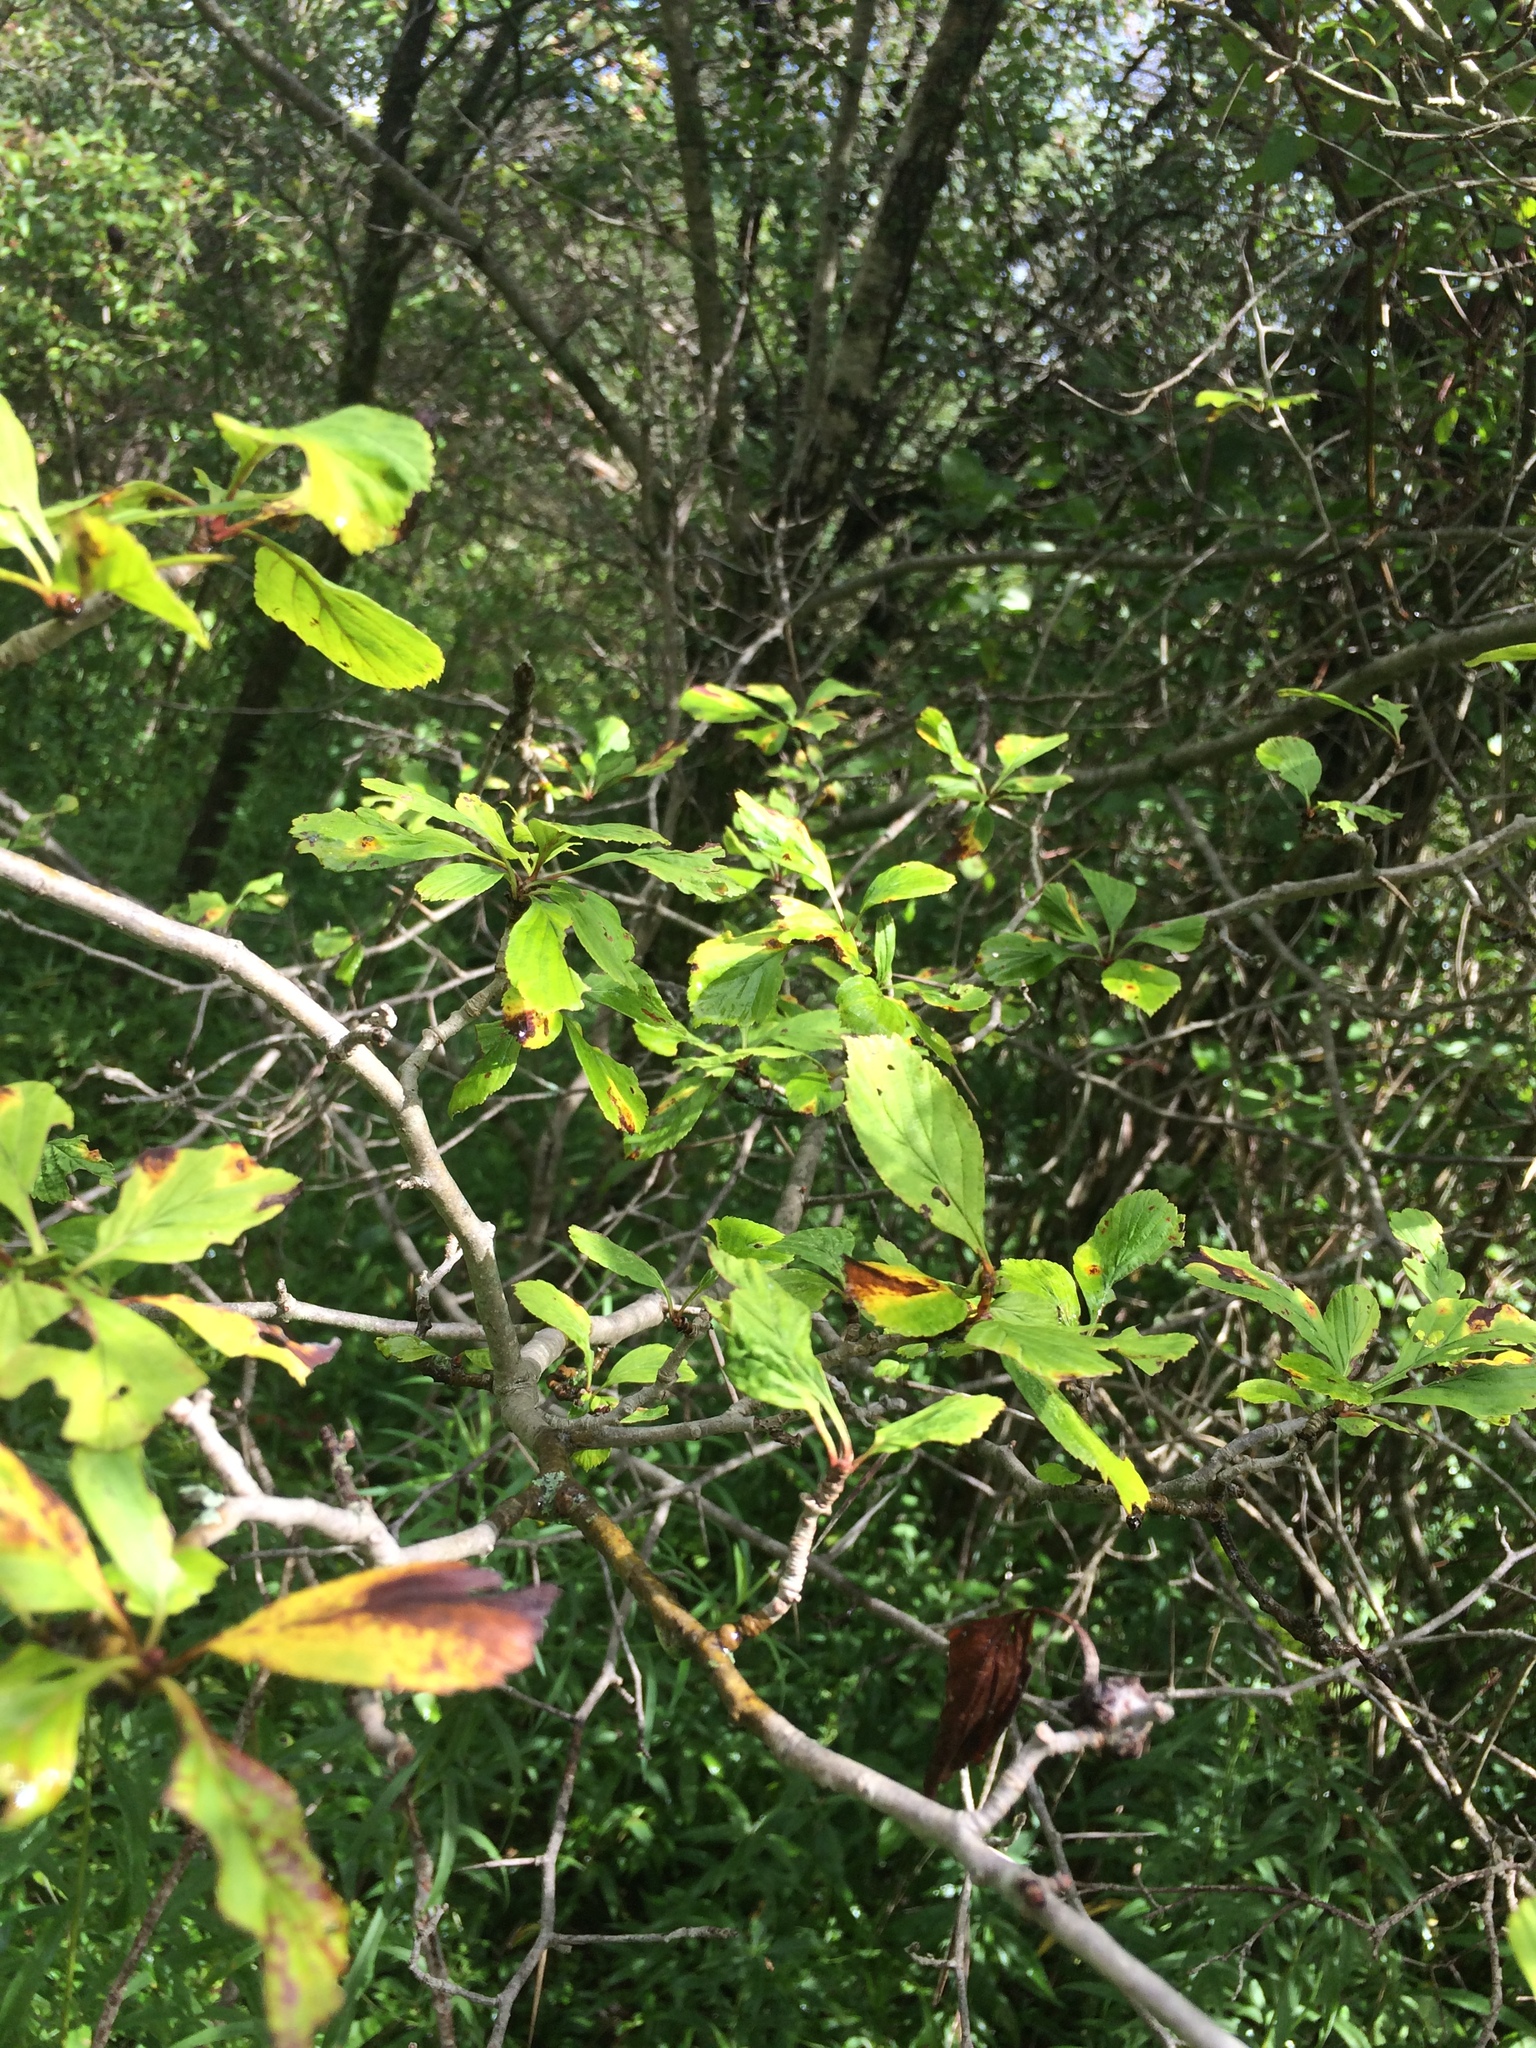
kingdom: Plantae
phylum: Tracheophyta
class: Magnoliopsida
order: Rosales
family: Rosaceae
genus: Crataegus
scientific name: Crataegus punctata
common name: Dotted hawthorn
